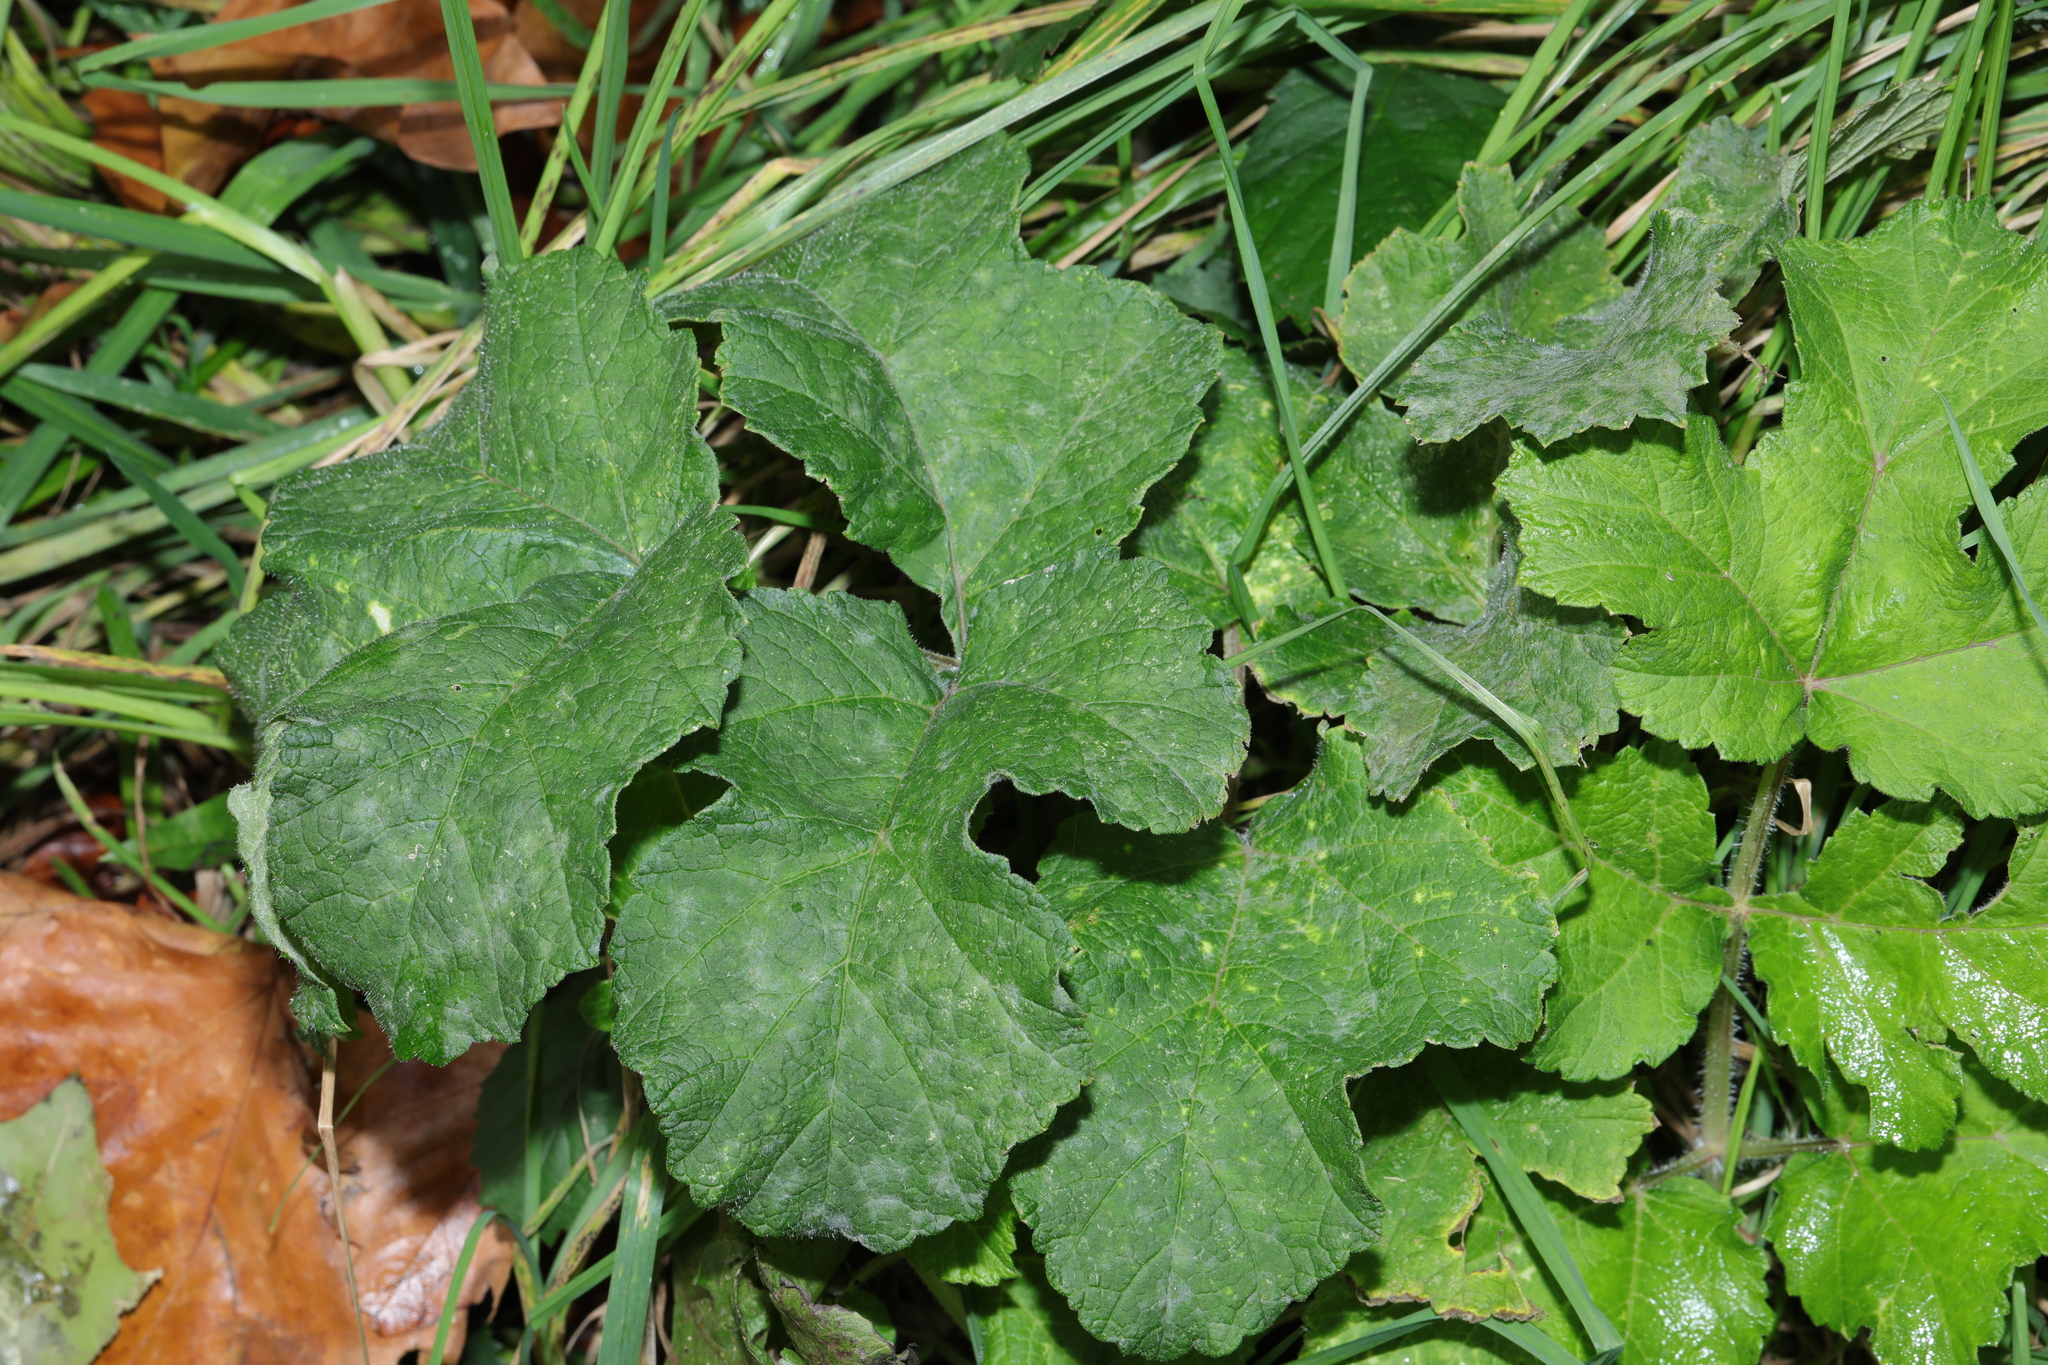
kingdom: Plantae
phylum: Tracheophyta
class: Magnoliopsida
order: Apiales
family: Apiaceae
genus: Heracleum
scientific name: Heracleum sphondylium
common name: Hogweed
